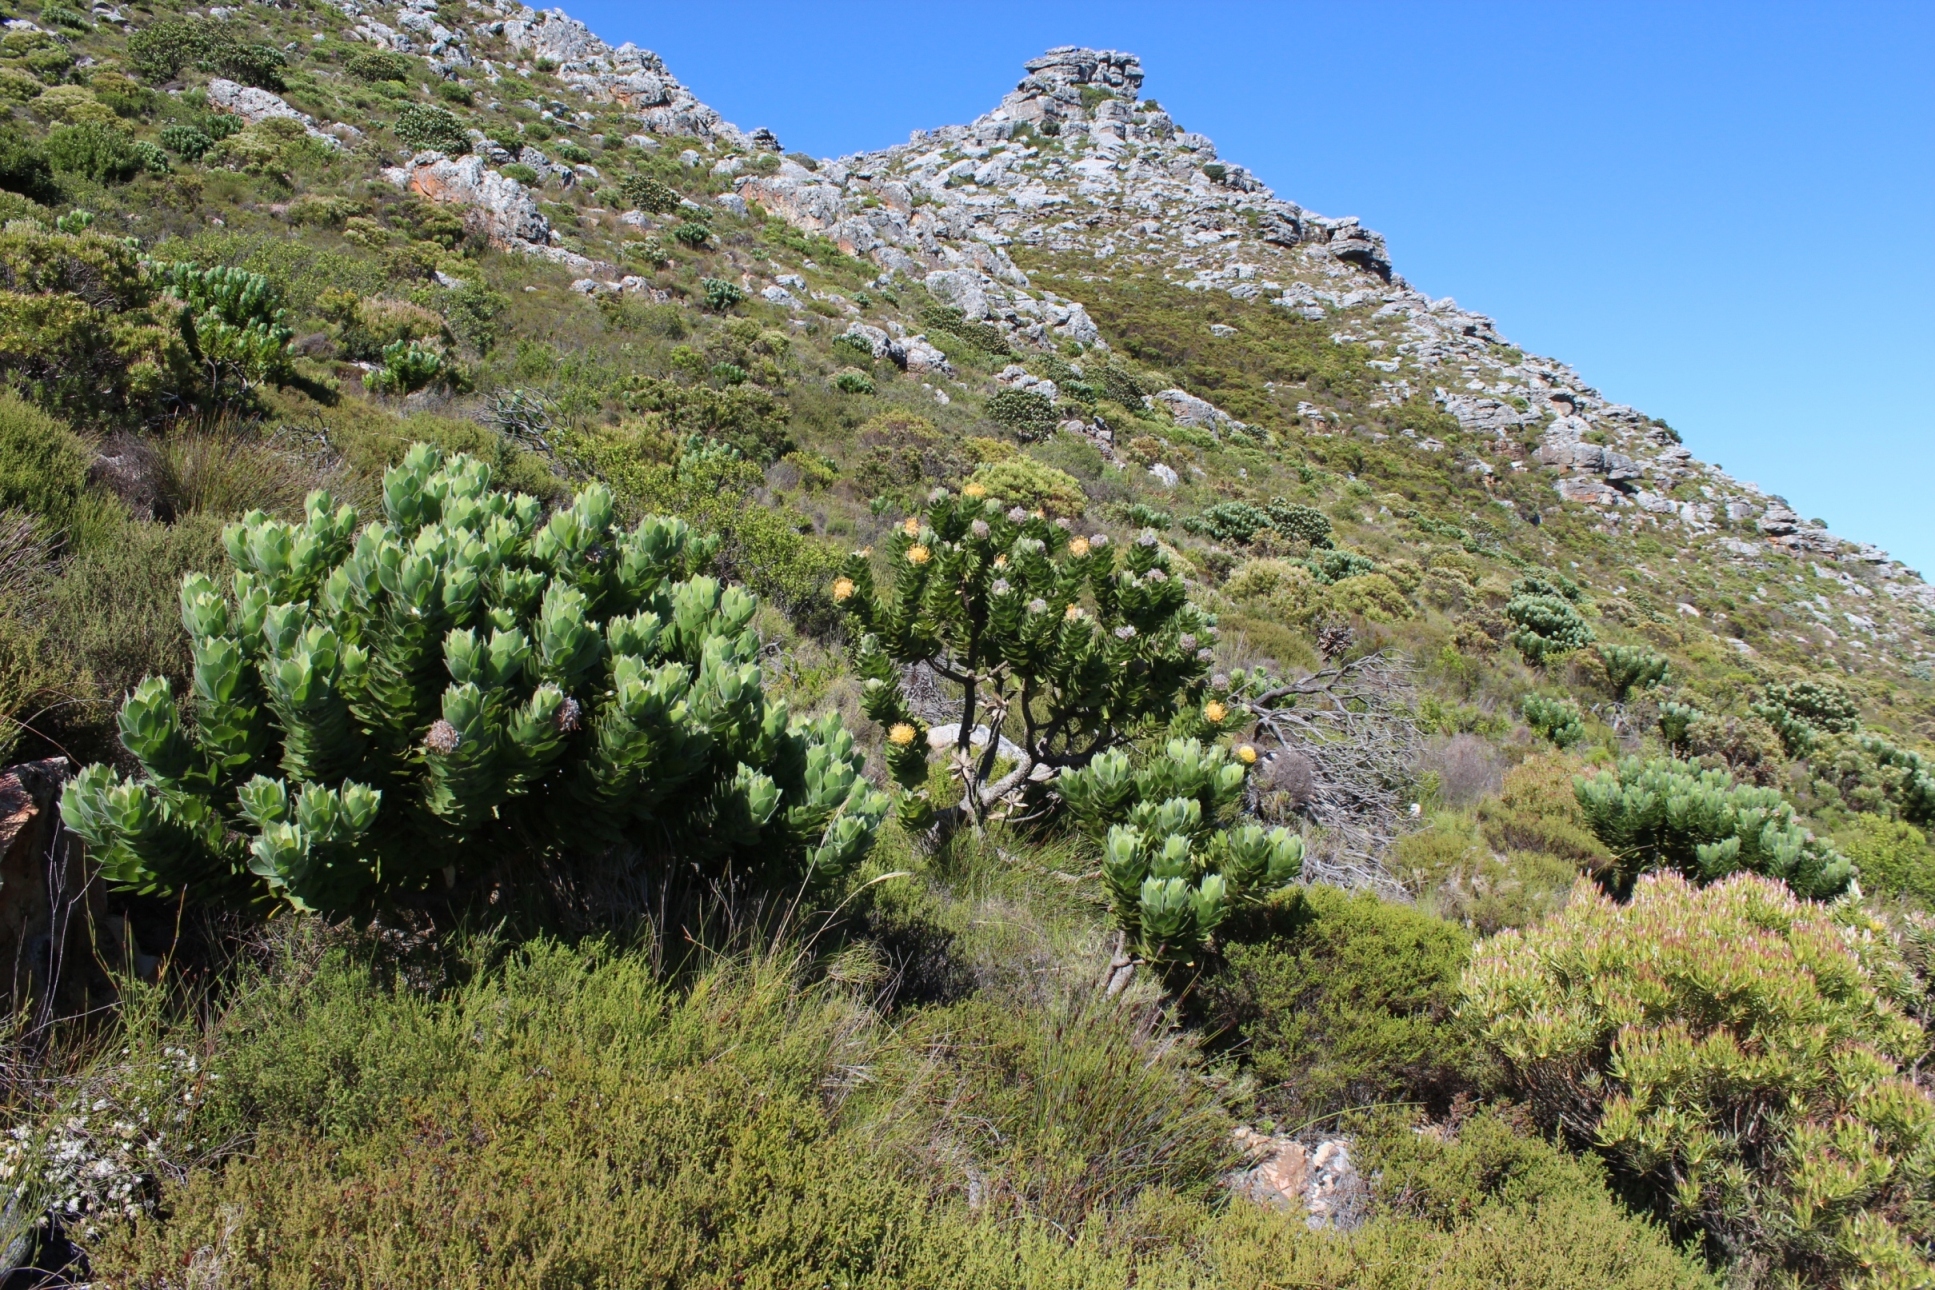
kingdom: Plantae
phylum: Tracheophyta
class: Magnoliopsida
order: Proteales
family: Proteaceae
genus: Leucospermum
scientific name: Leucospermum conocarpodendron
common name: Tree pincushion
